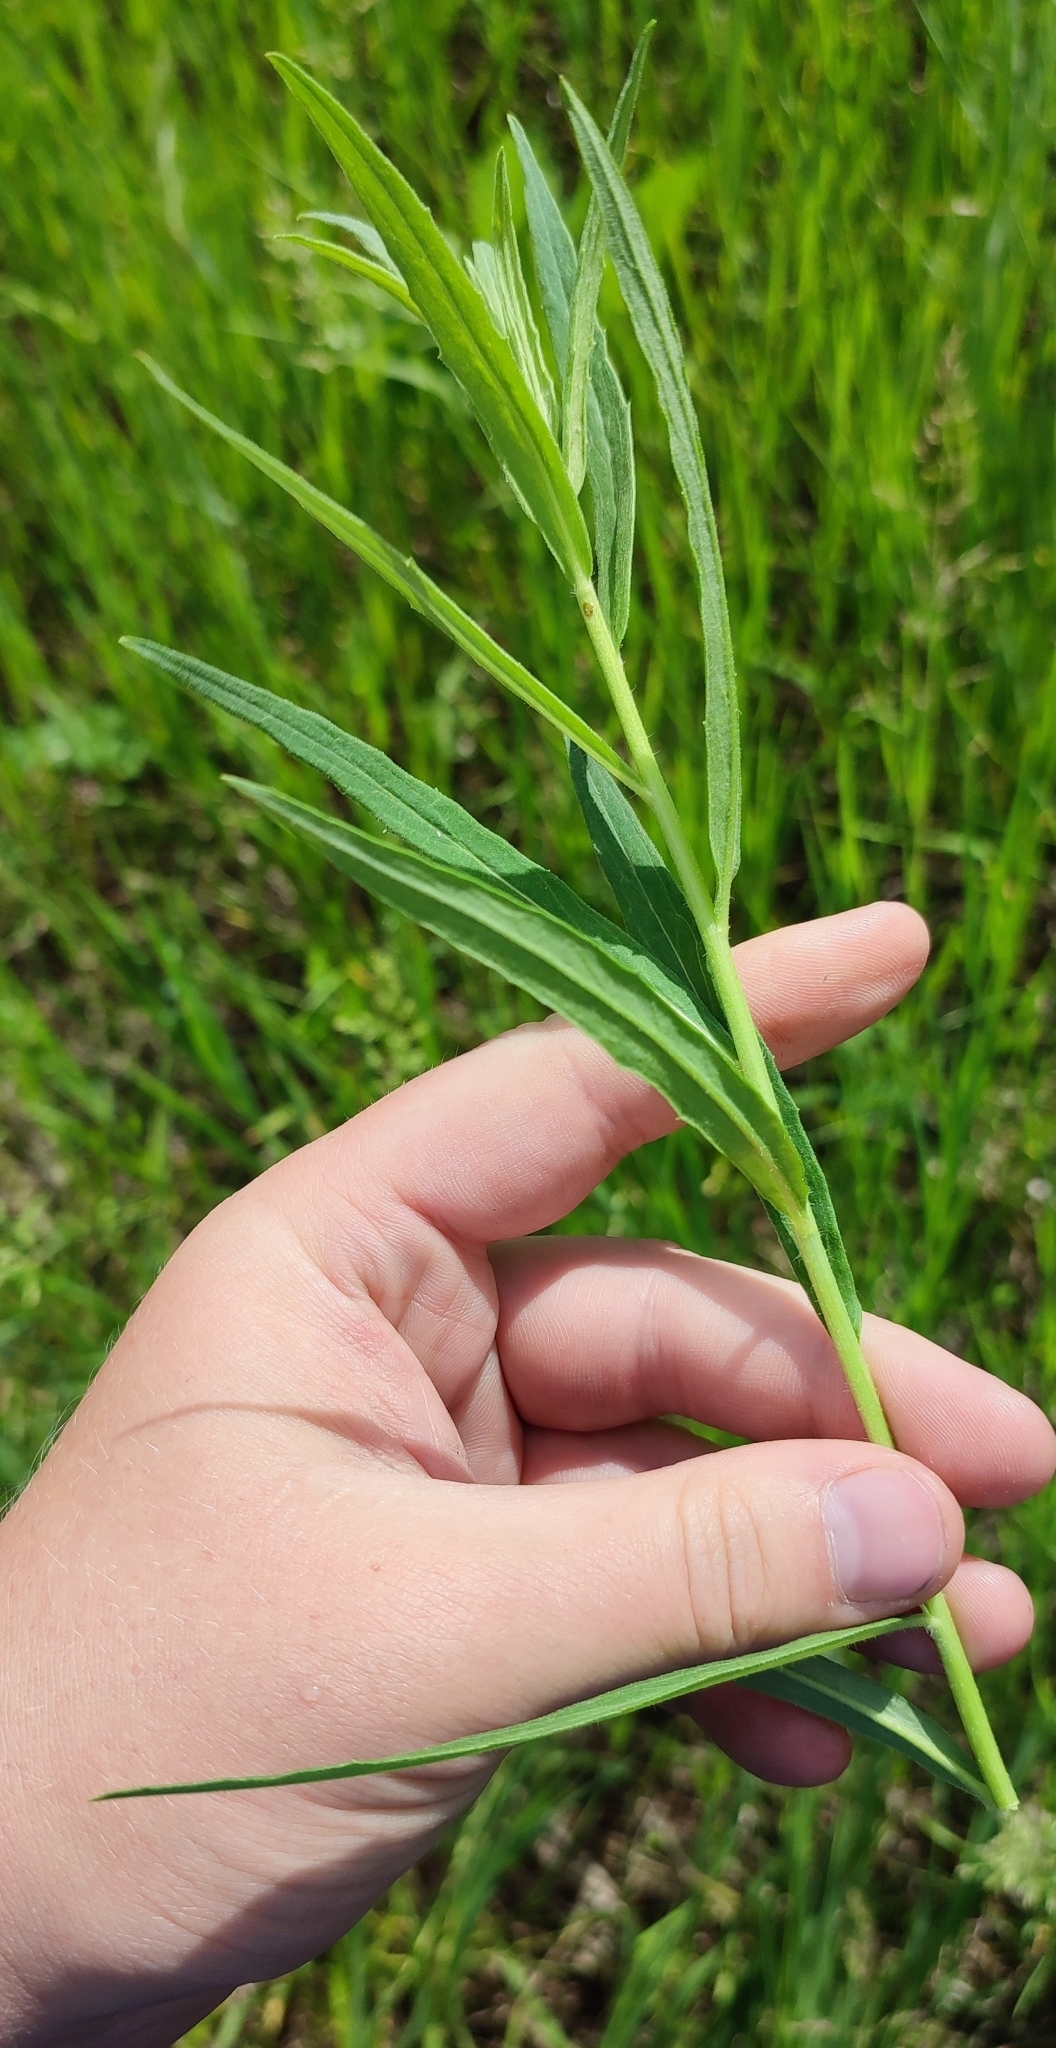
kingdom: Plantae
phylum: Tracheophyta
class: Magnoliopsida
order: Asterales
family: Asteraceae
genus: Hieracium
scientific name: Hieracium umbellatum
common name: Northern hawkweed
